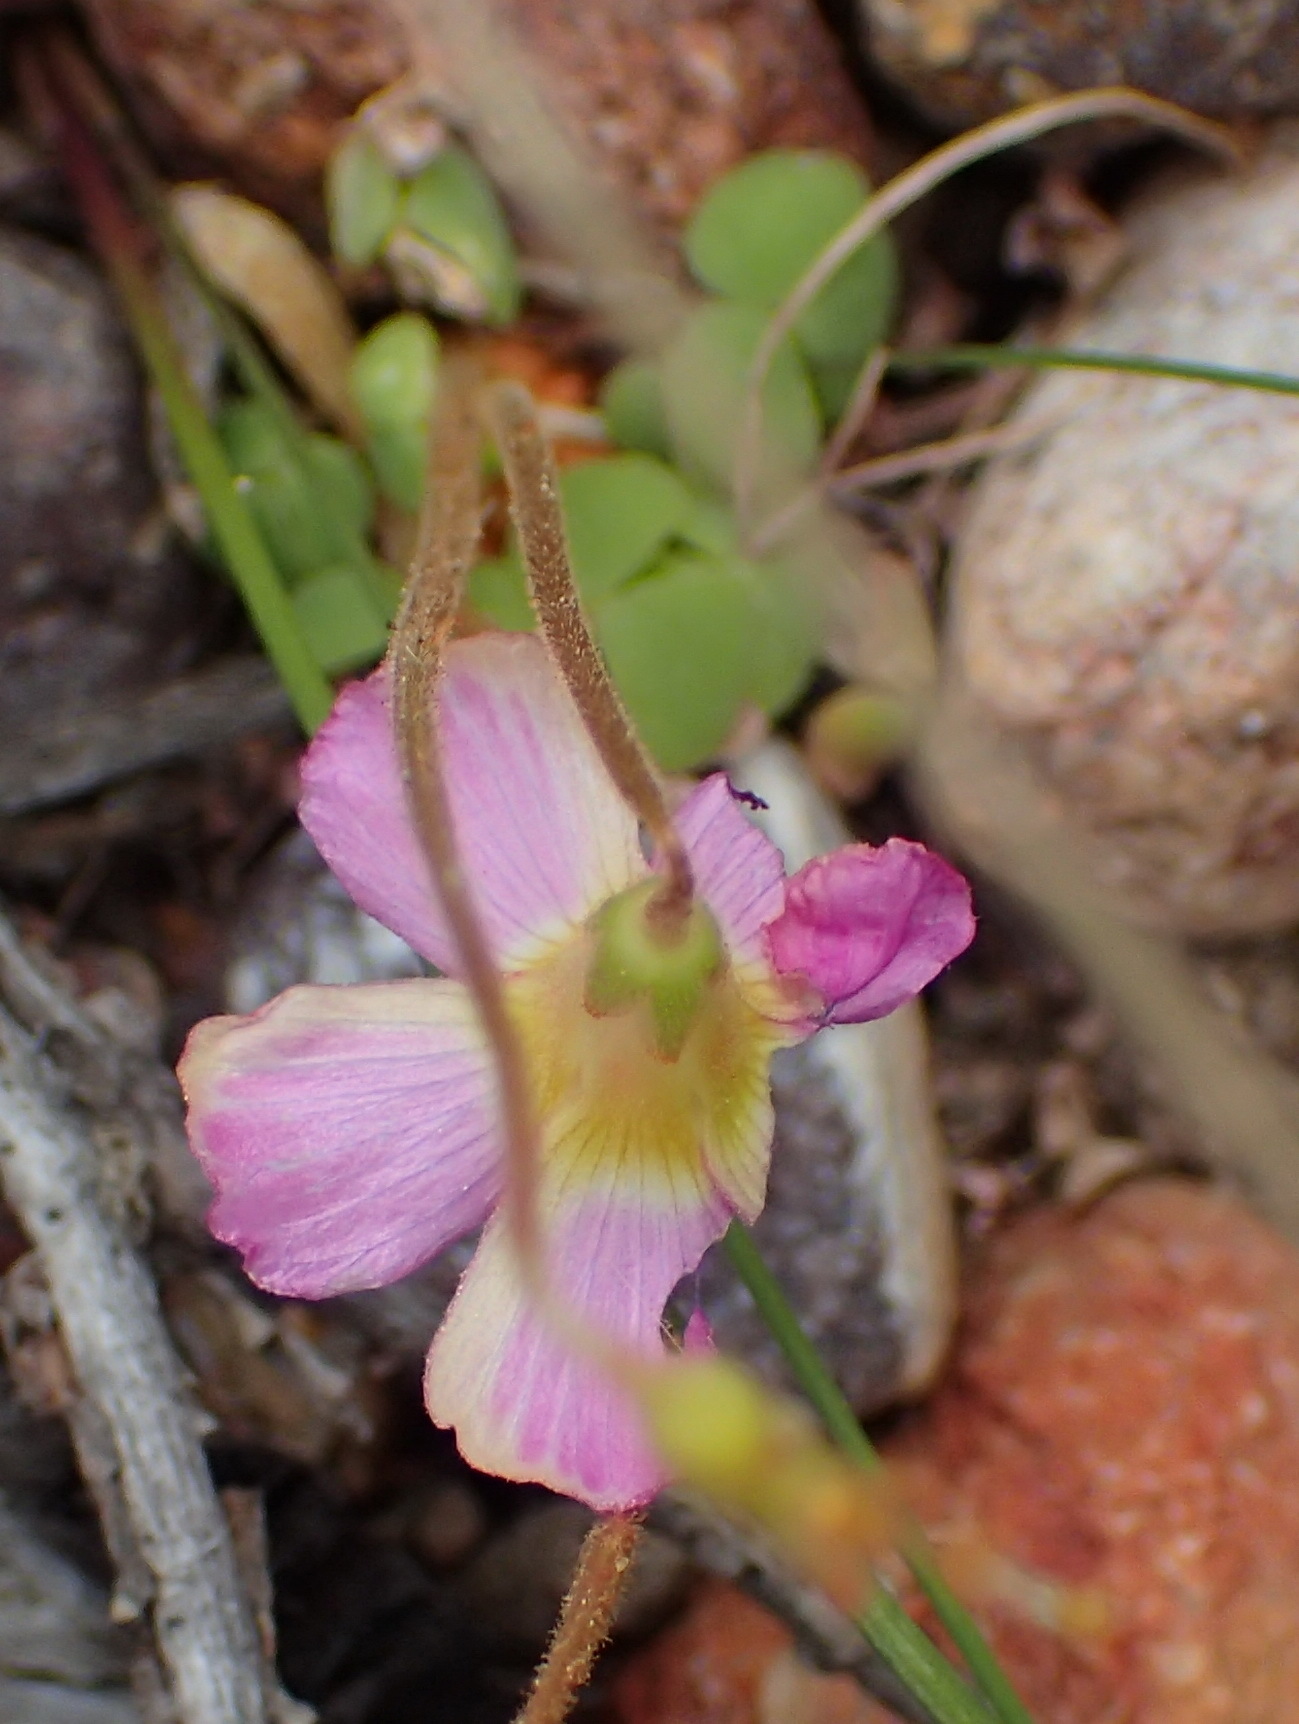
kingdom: Plantae
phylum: Tracheophyta
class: Magnoliopsida
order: Oxalidales
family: Oxalidaceae
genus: Oxalis
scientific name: Oxalis fergusoniae
